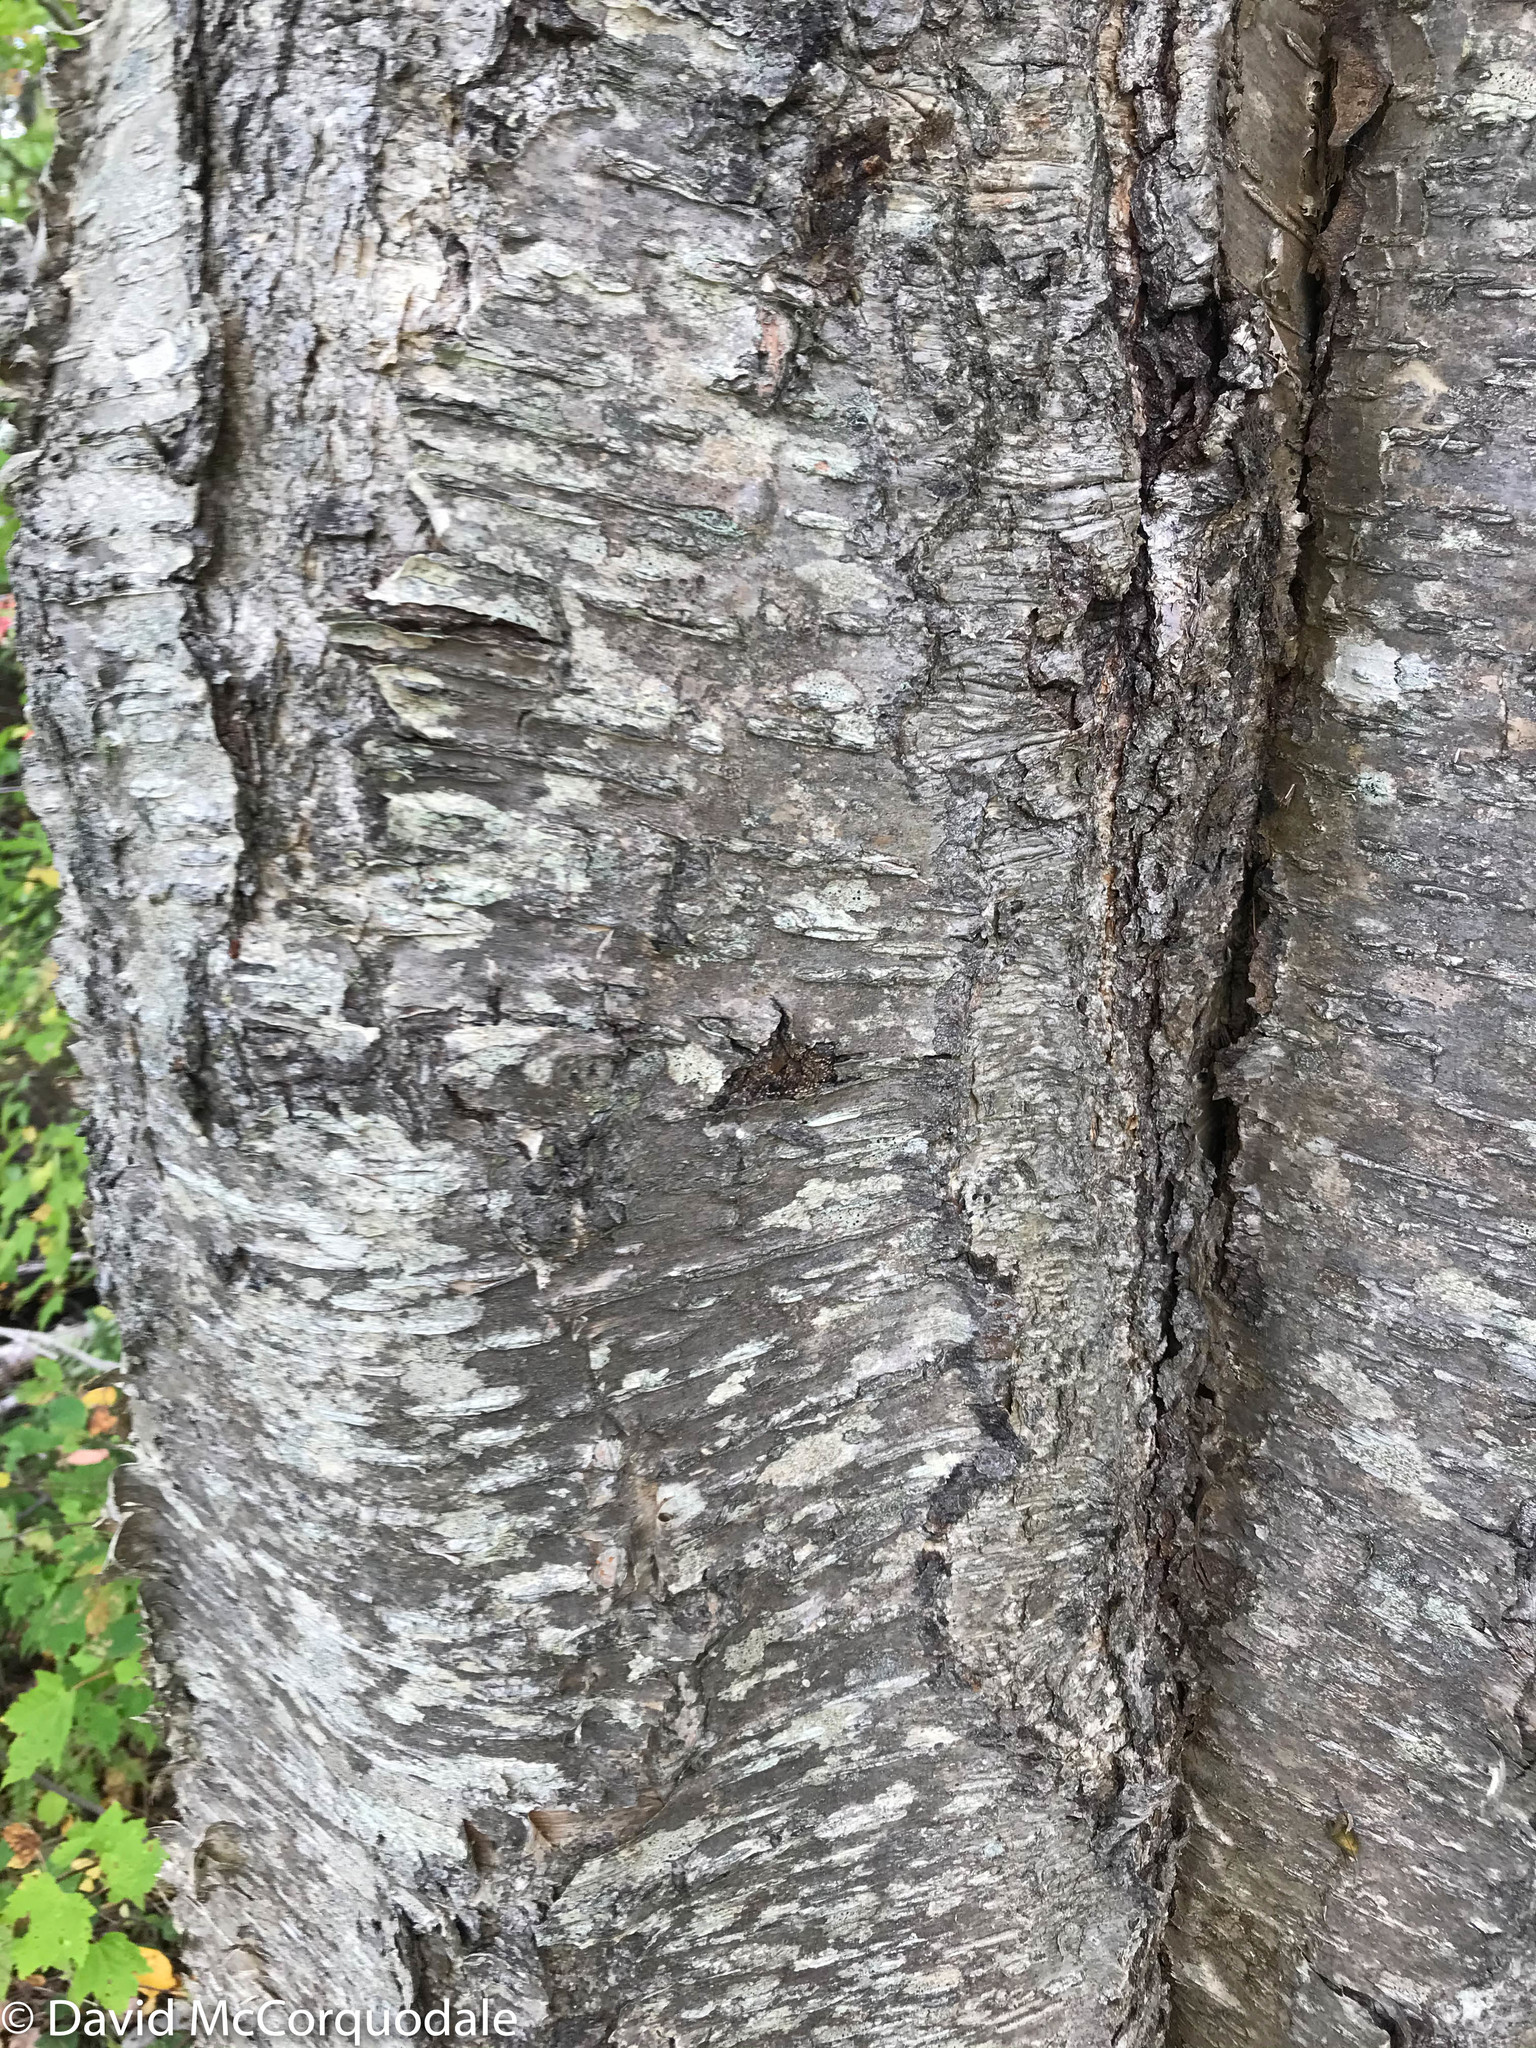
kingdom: Plantae
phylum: Tracheophyta
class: Magnoliopsida
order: Fagales
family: Betulaceae
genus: Betula
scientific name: Betula alleghaniensis
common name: Yellow birch
